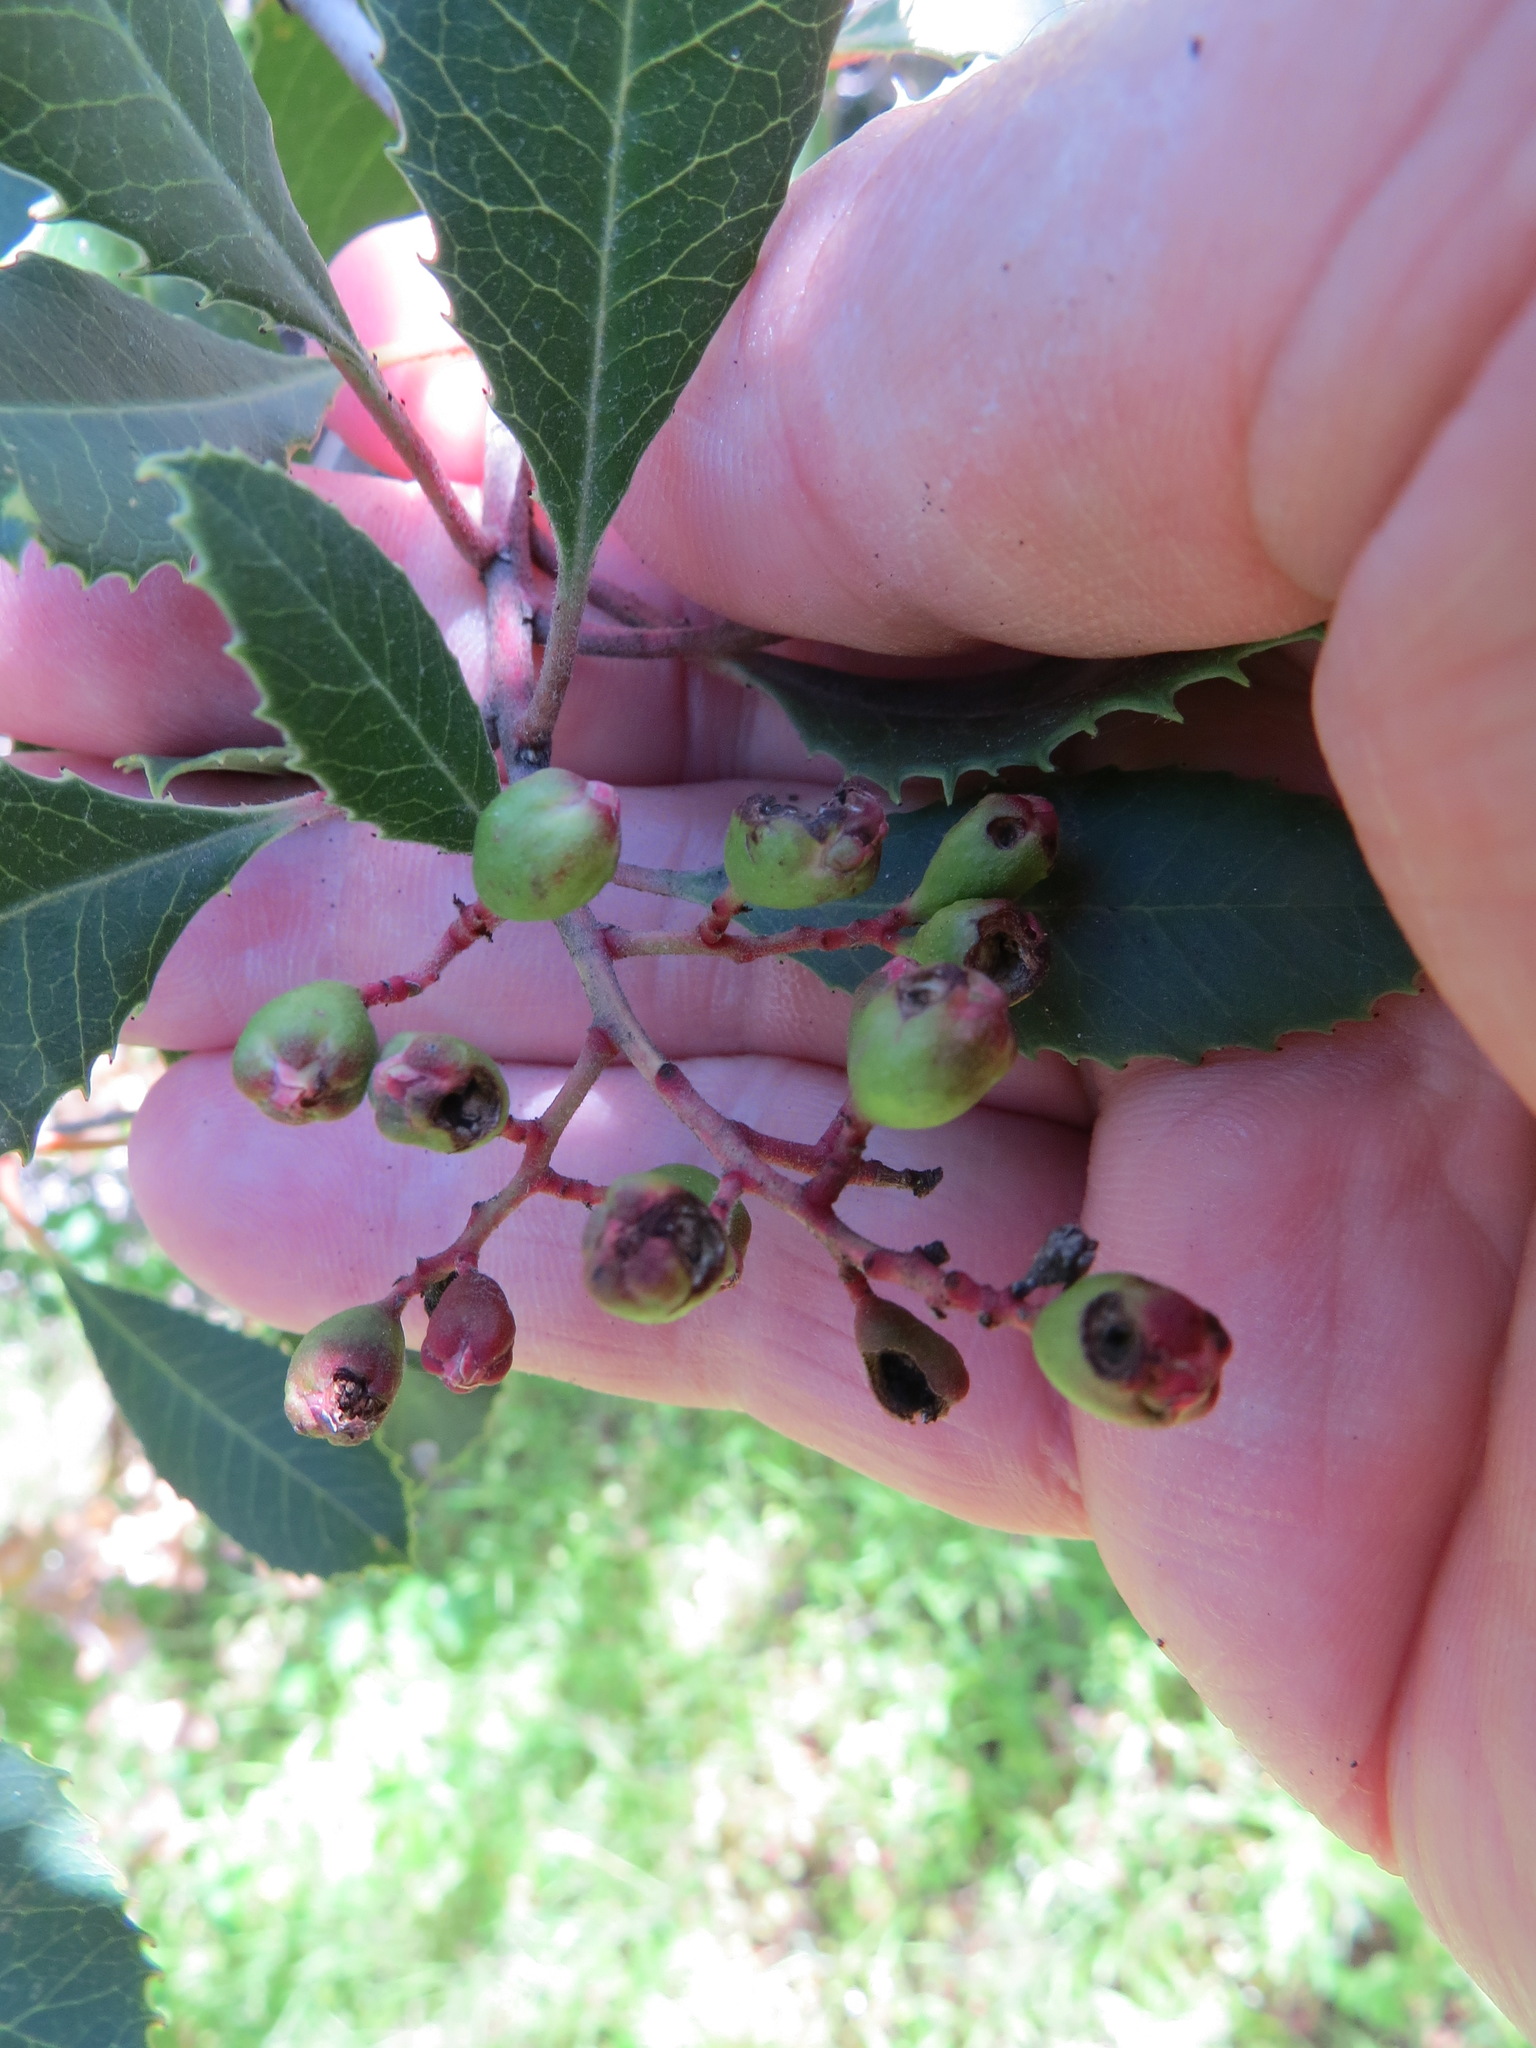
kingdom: Animalia
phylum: Arthropoda
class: Insecta
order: Diptera
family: Cecidomyiidae
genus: Asphondylia
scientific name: Asphondylia photiniae
